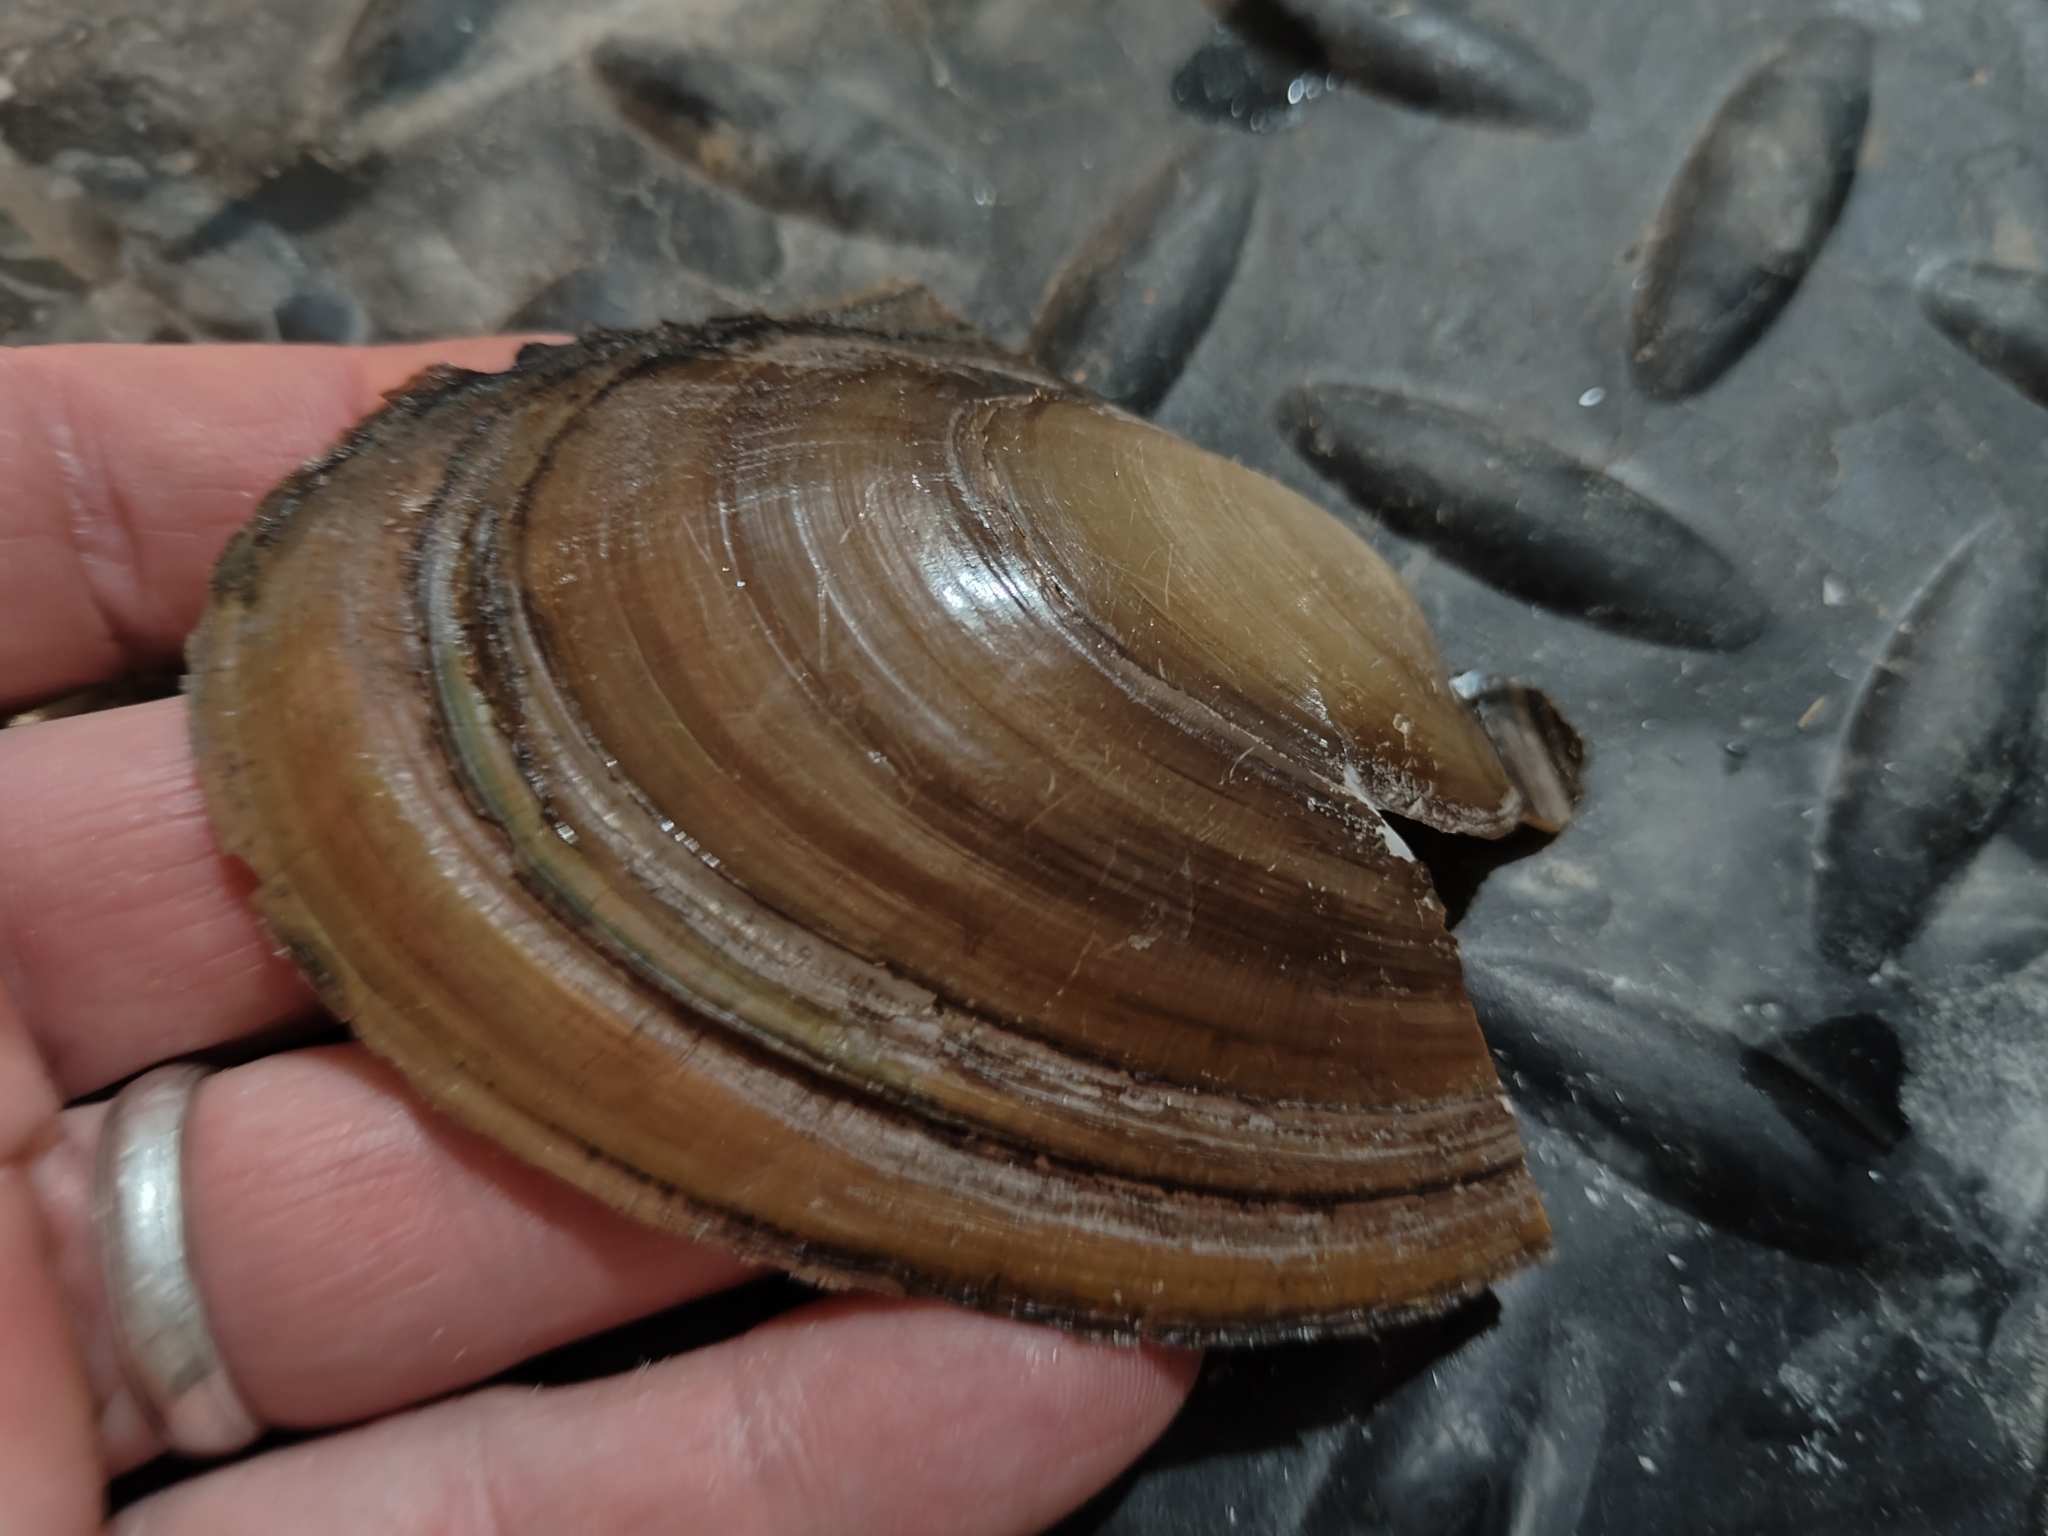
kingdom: Animalia
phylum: Mollusca
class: Bivalvia
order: Unionida
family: Unionidae
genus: Potamilus
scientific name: Potamilus ohiensis
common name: Pink papershell
